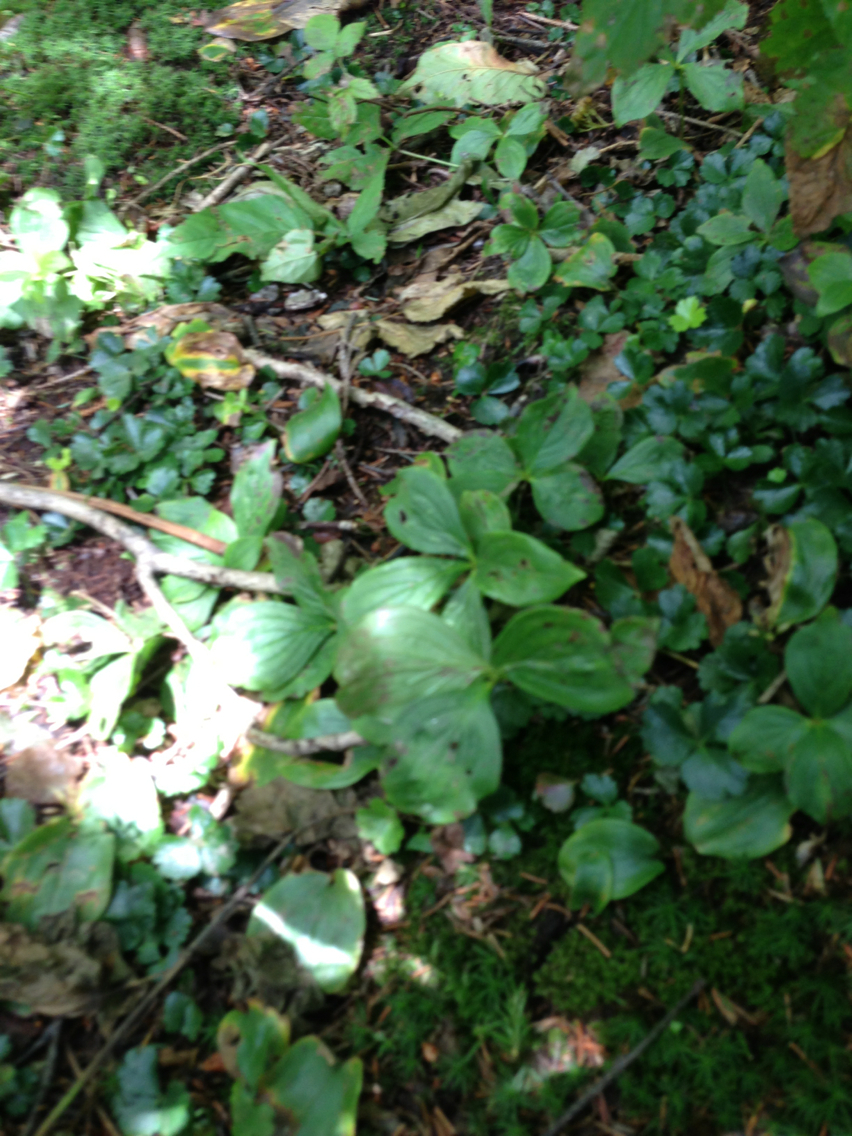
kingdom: Plantae
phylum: Tracheophyta
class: Magnoliopsida
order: Cornales
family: Cornaceae
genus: Cornus
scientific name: Cornus canadensis
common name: Creeping dogwood
